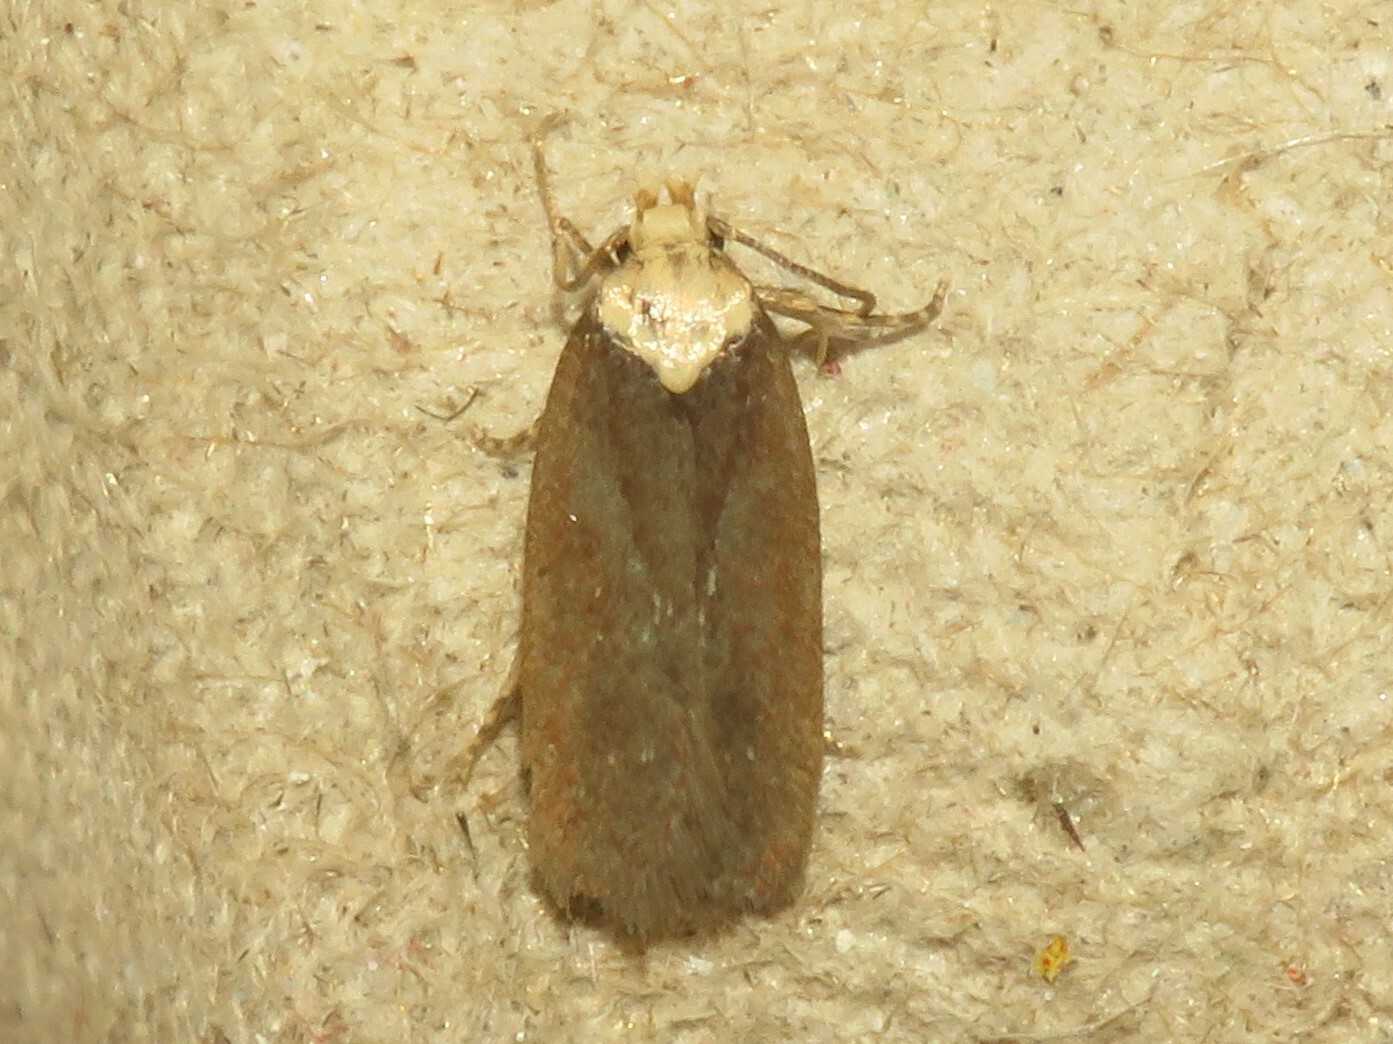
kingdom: Animalia
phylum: Arthropoda
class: Insecta
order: Lepidoptera
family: Depressariidae
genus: Depressaria
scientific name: Depressaria depressana
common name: Lost flat-body
